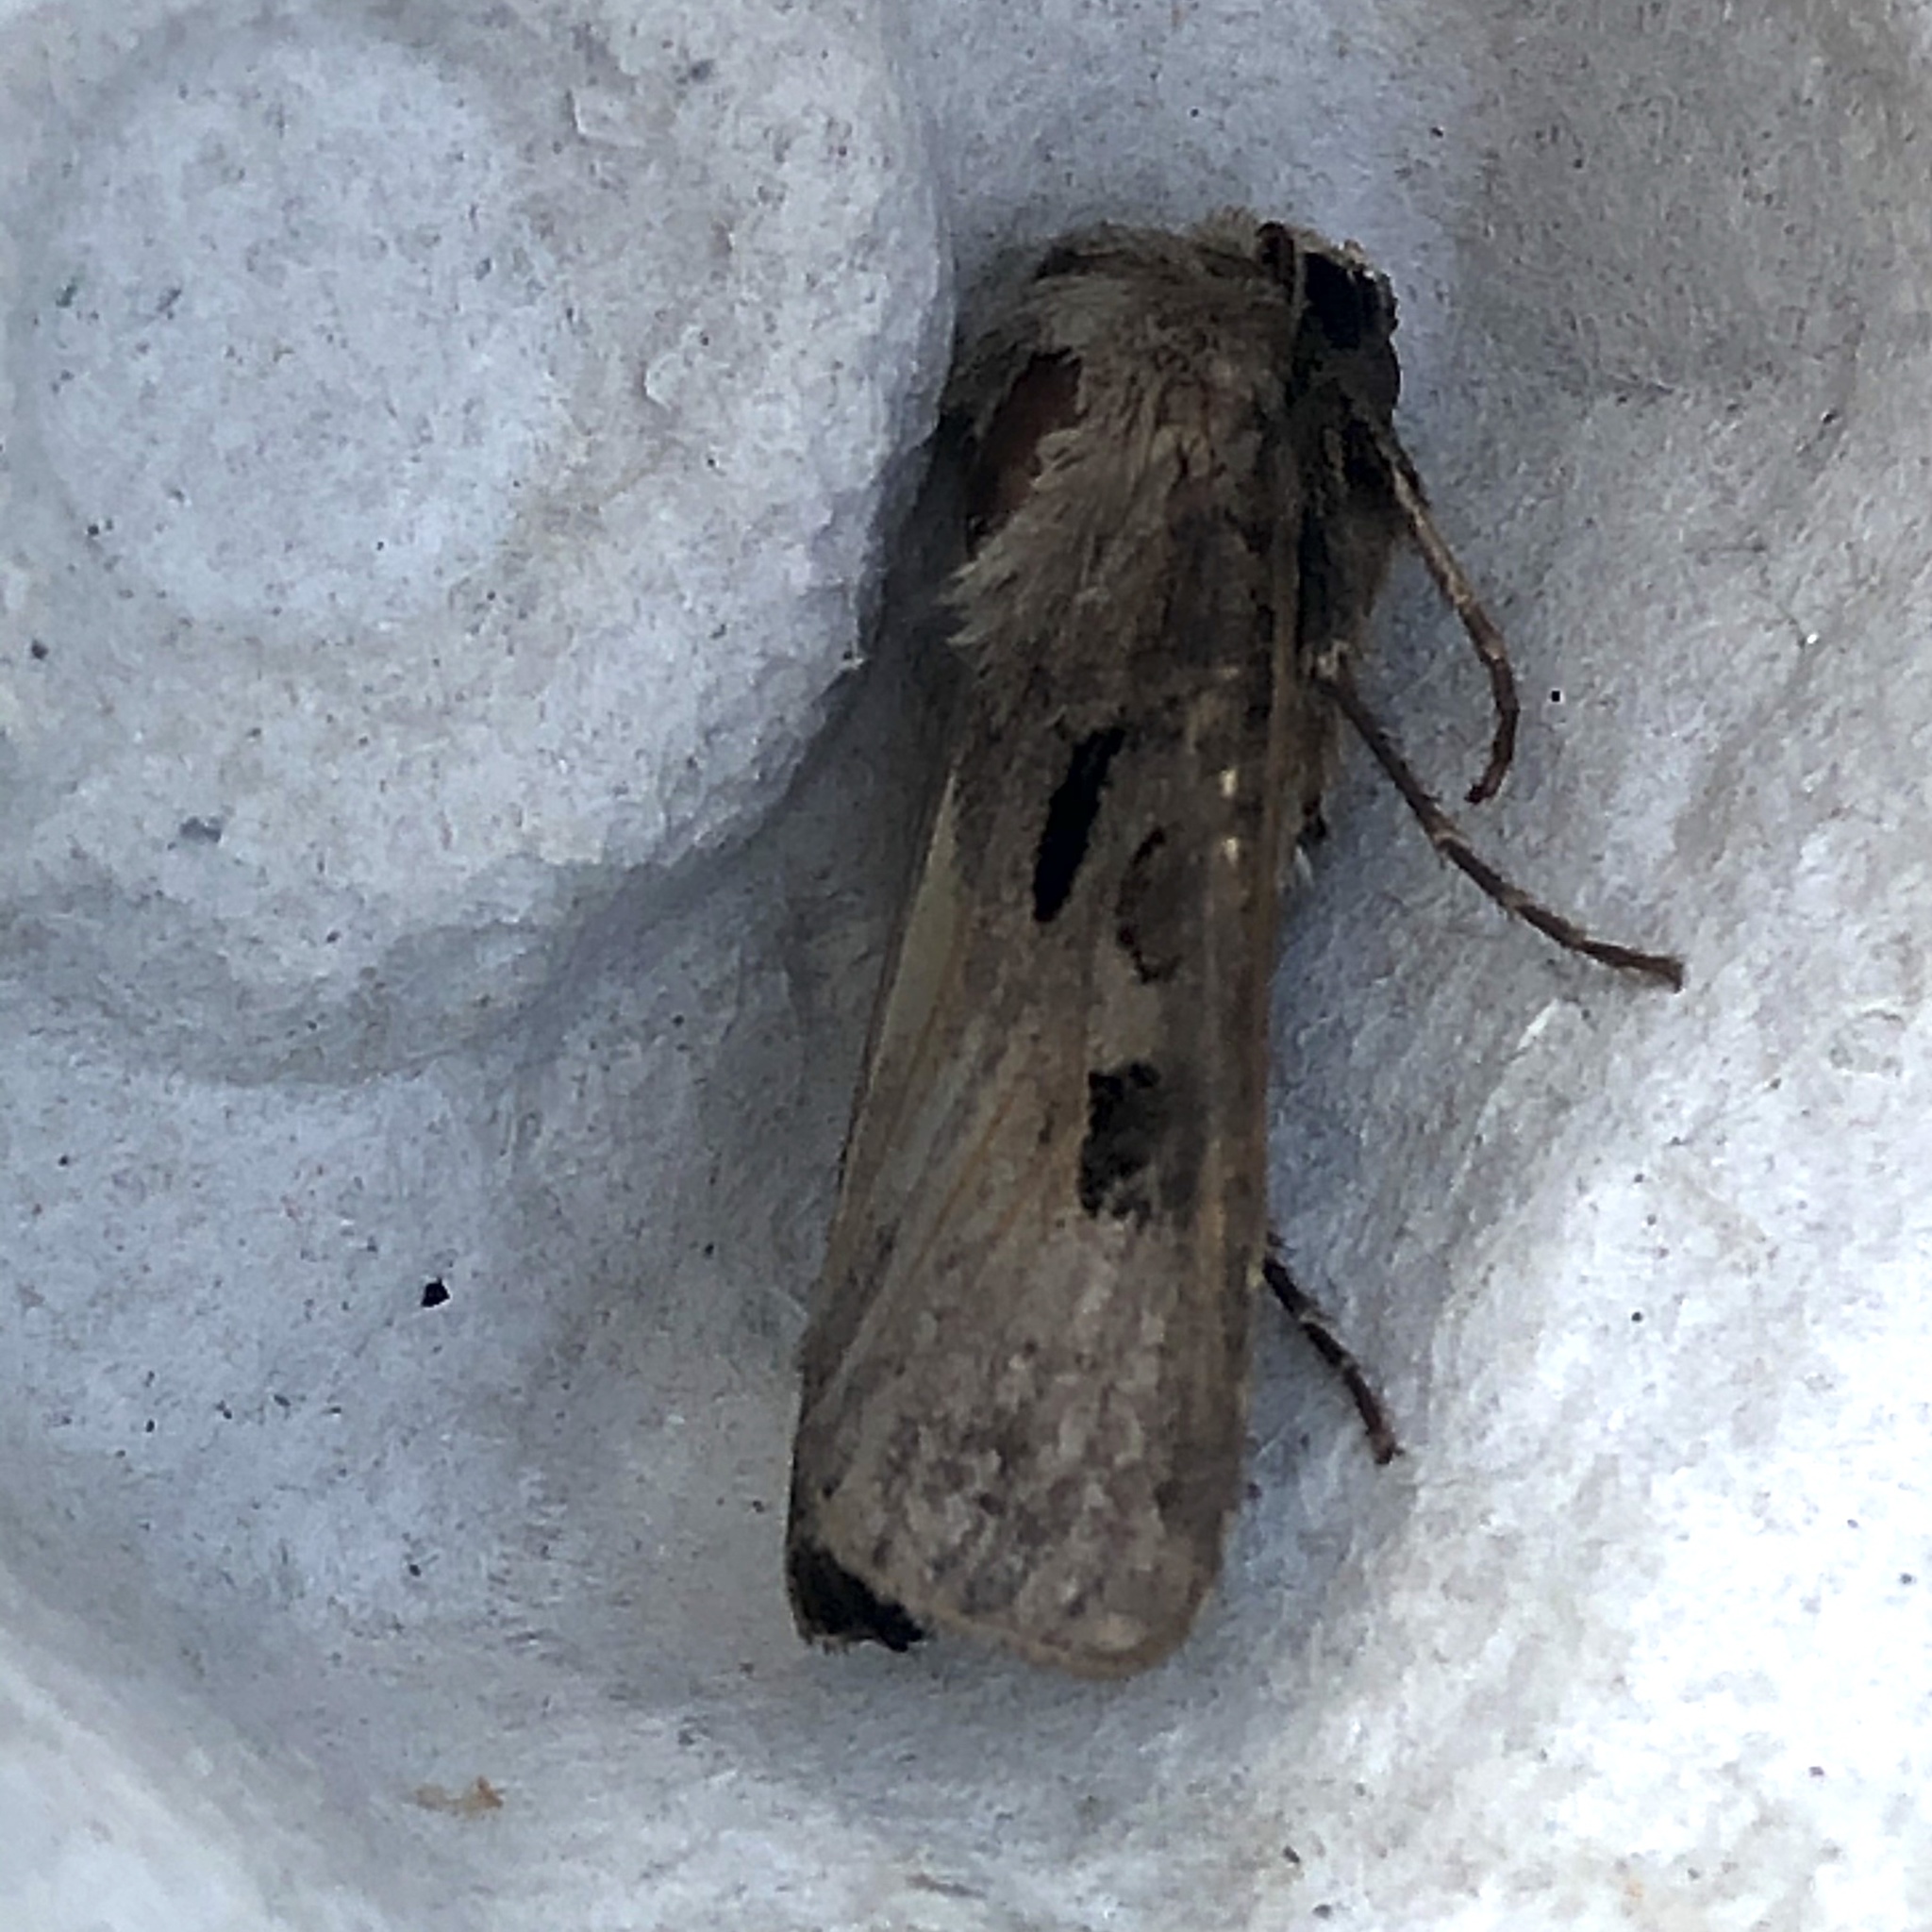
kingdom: Animalia
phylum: Arthropoda
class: Insecta
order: Lepidoptera
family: Noctuidae
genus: Agrotis
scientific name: Agrotis exclamationis
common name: Heart and dart
